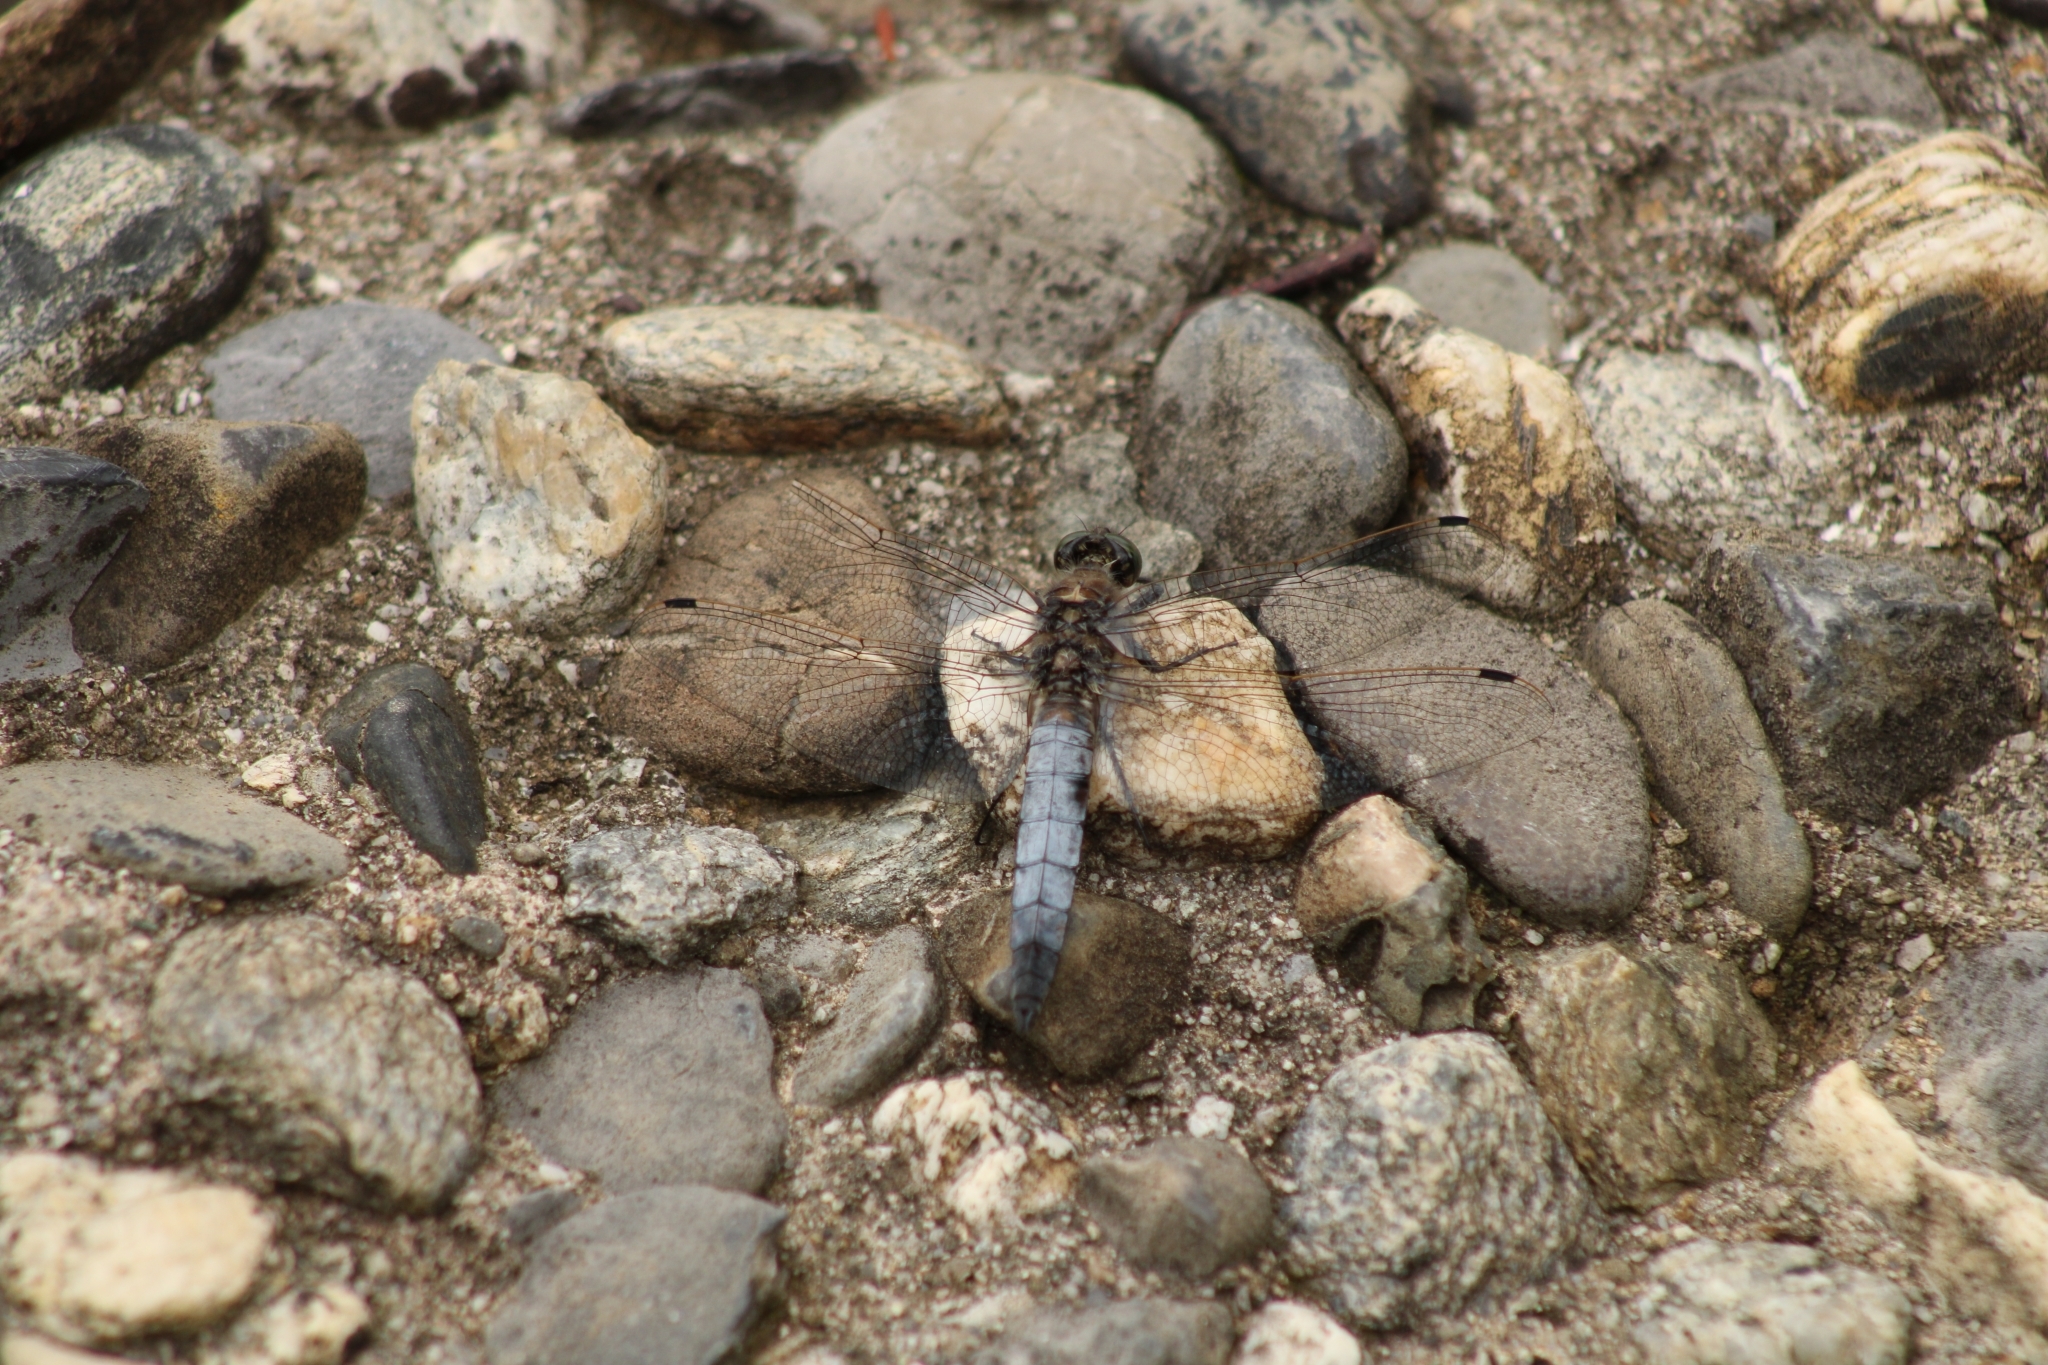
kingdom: Animalia
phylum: Arthropoda
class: Insecta
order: Odonata
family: Libellulidae
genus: Orthetrum
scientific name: Orthetrum cancellatum
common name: Black-tailed skimmer
